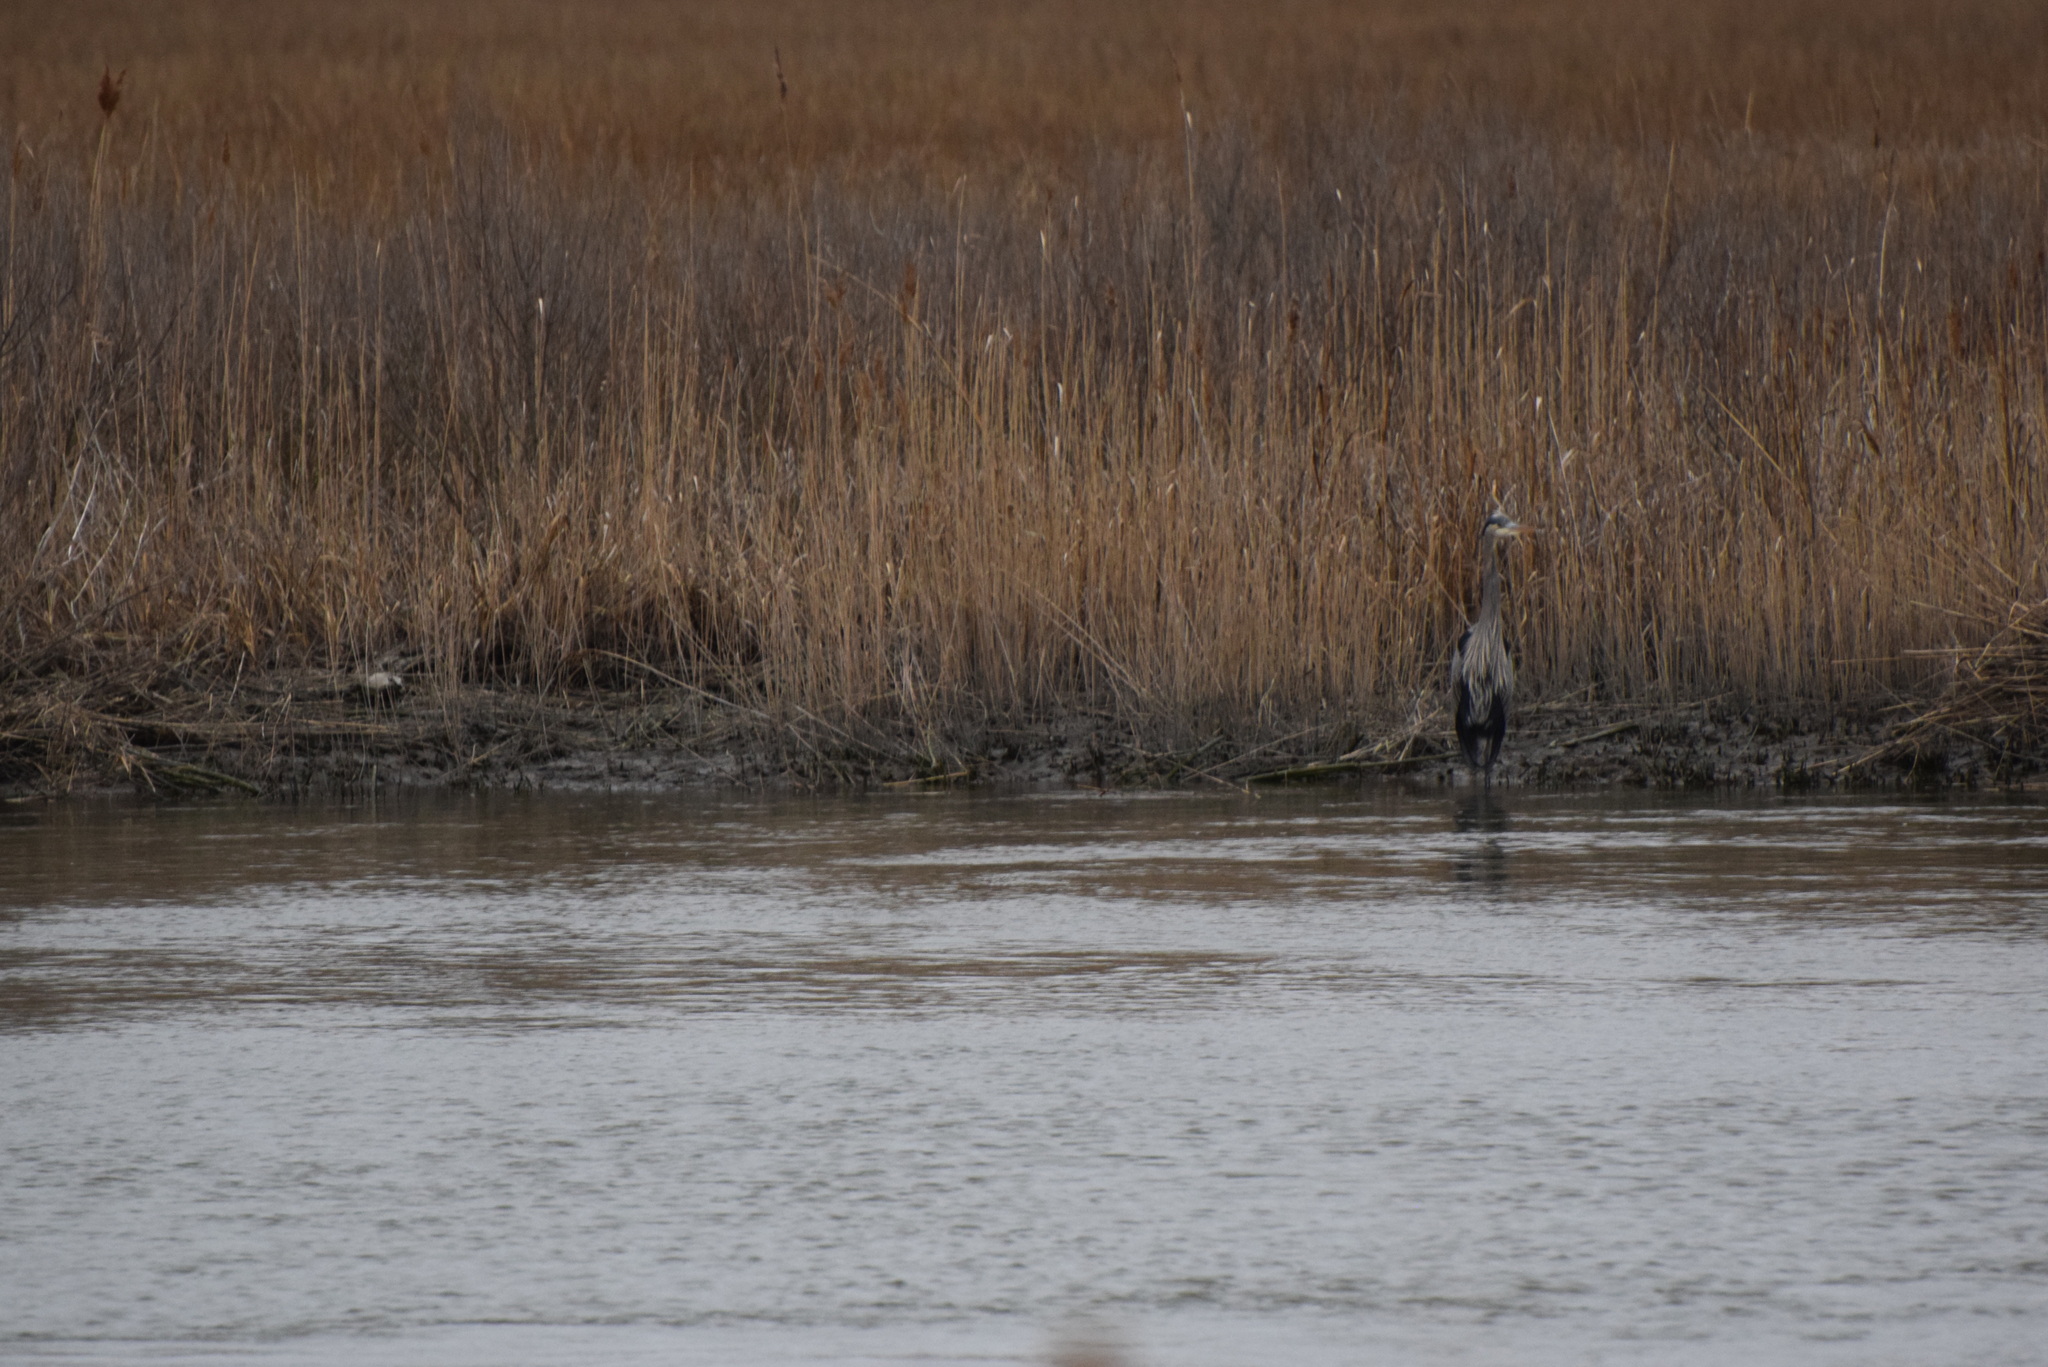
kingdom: Animalia
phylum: Chordata
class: Aves
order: Pelecaniformes
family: Ardeidae
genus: Ardea
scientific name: Ardea herodias
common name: Great blue heron
